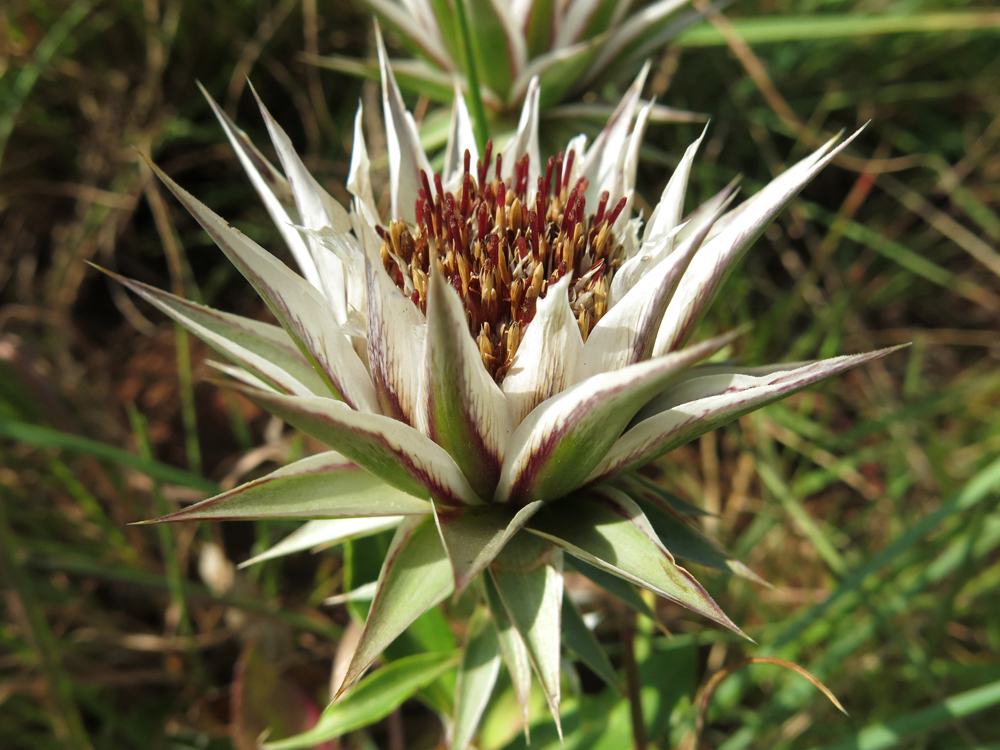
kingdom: Plantae
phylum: Tracheophyta
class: Magnoliopsida
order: Asterales
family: Asteraceae
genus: Macledium
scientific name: Macledium zeyheri
